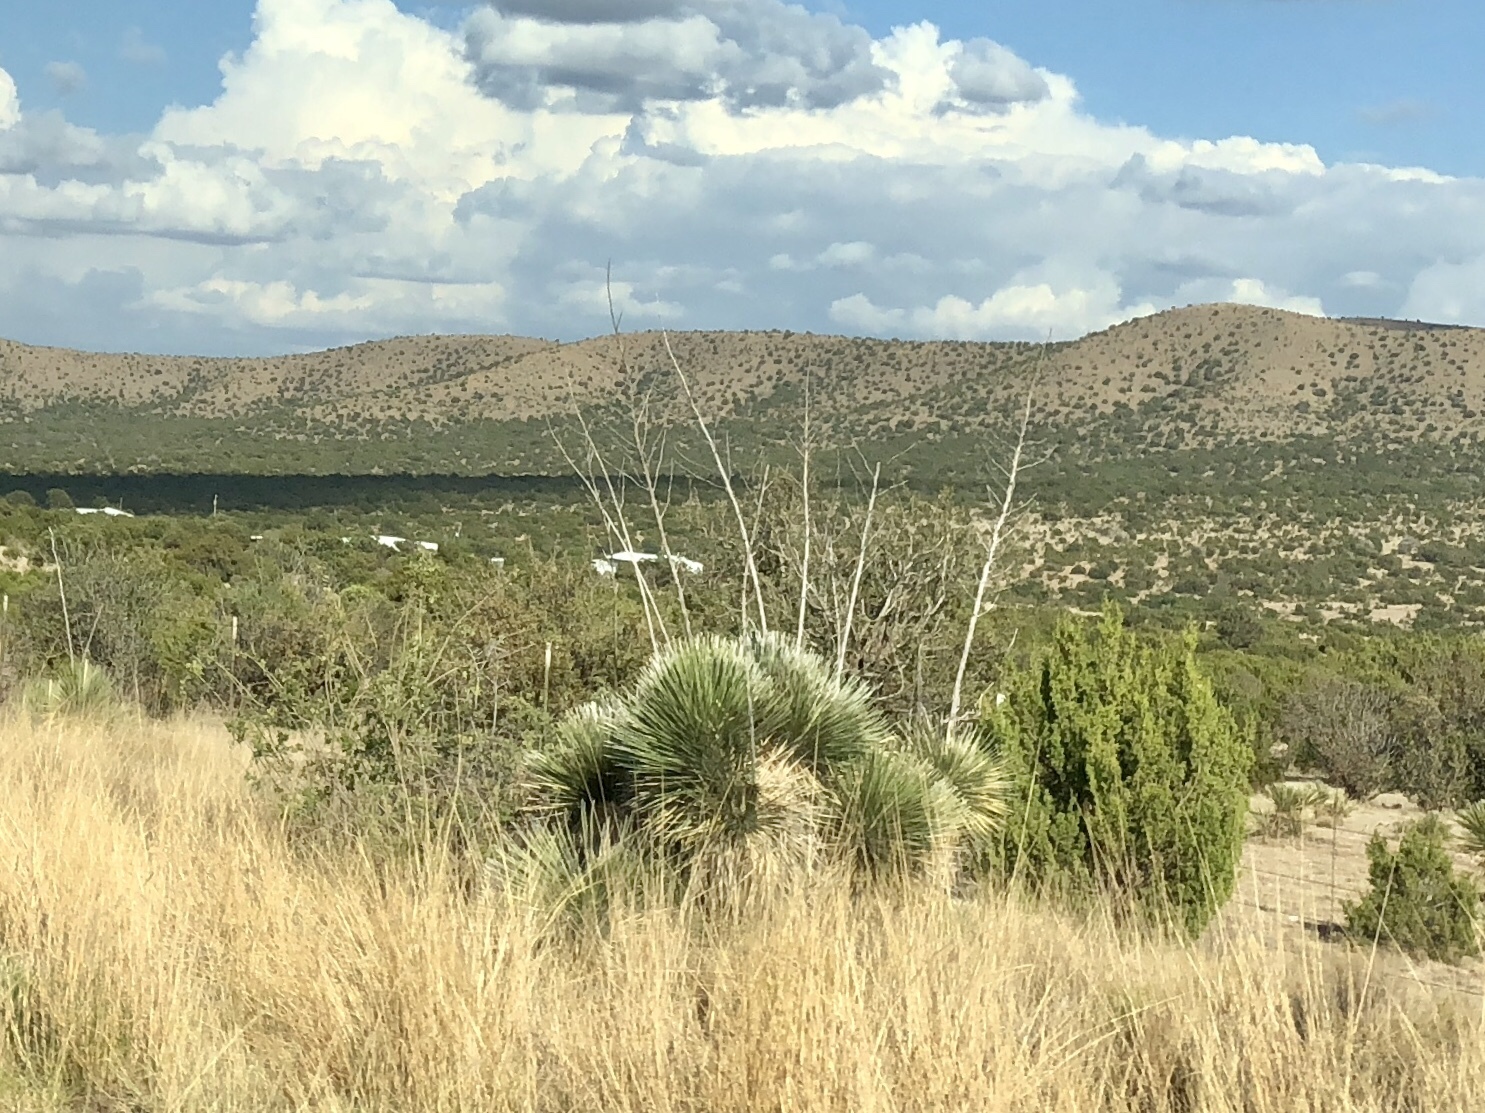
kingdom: Plantae
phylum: Tracheophyta
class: Liliopsida
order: Asparagales
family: Asparagaceae
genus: Yucca
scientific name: Yucca elata
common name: Palmella
